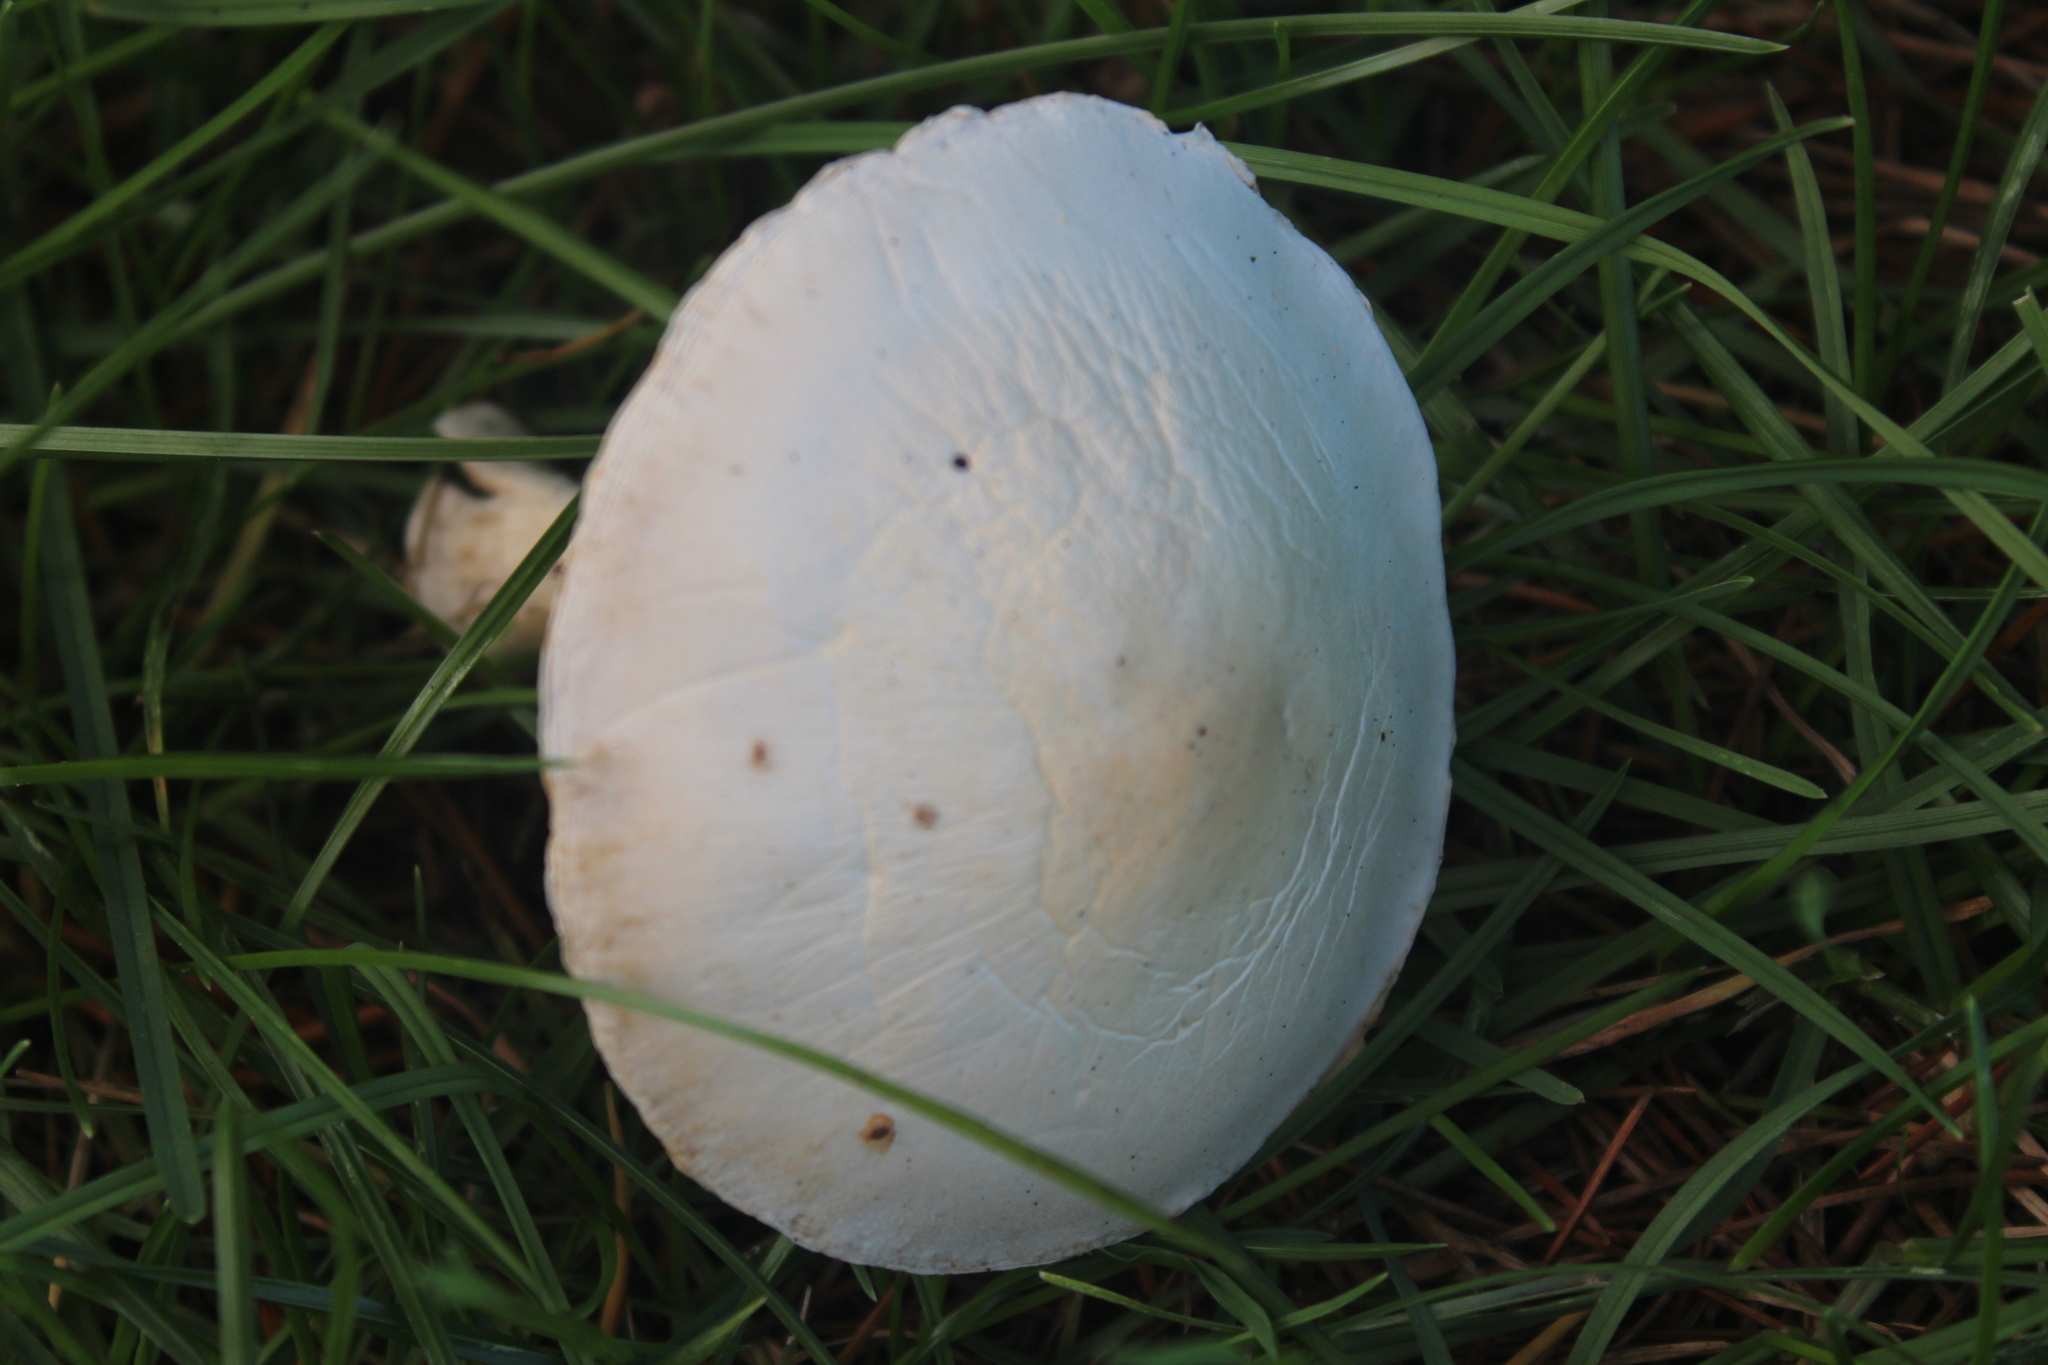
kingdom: Fungi
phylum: Basidiomycota
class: Agaricomycetes
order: Agaricales
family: Agaricaceae
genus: Leucoagaricus
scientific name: Leucoagaricus leucothites
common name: White dapperling
